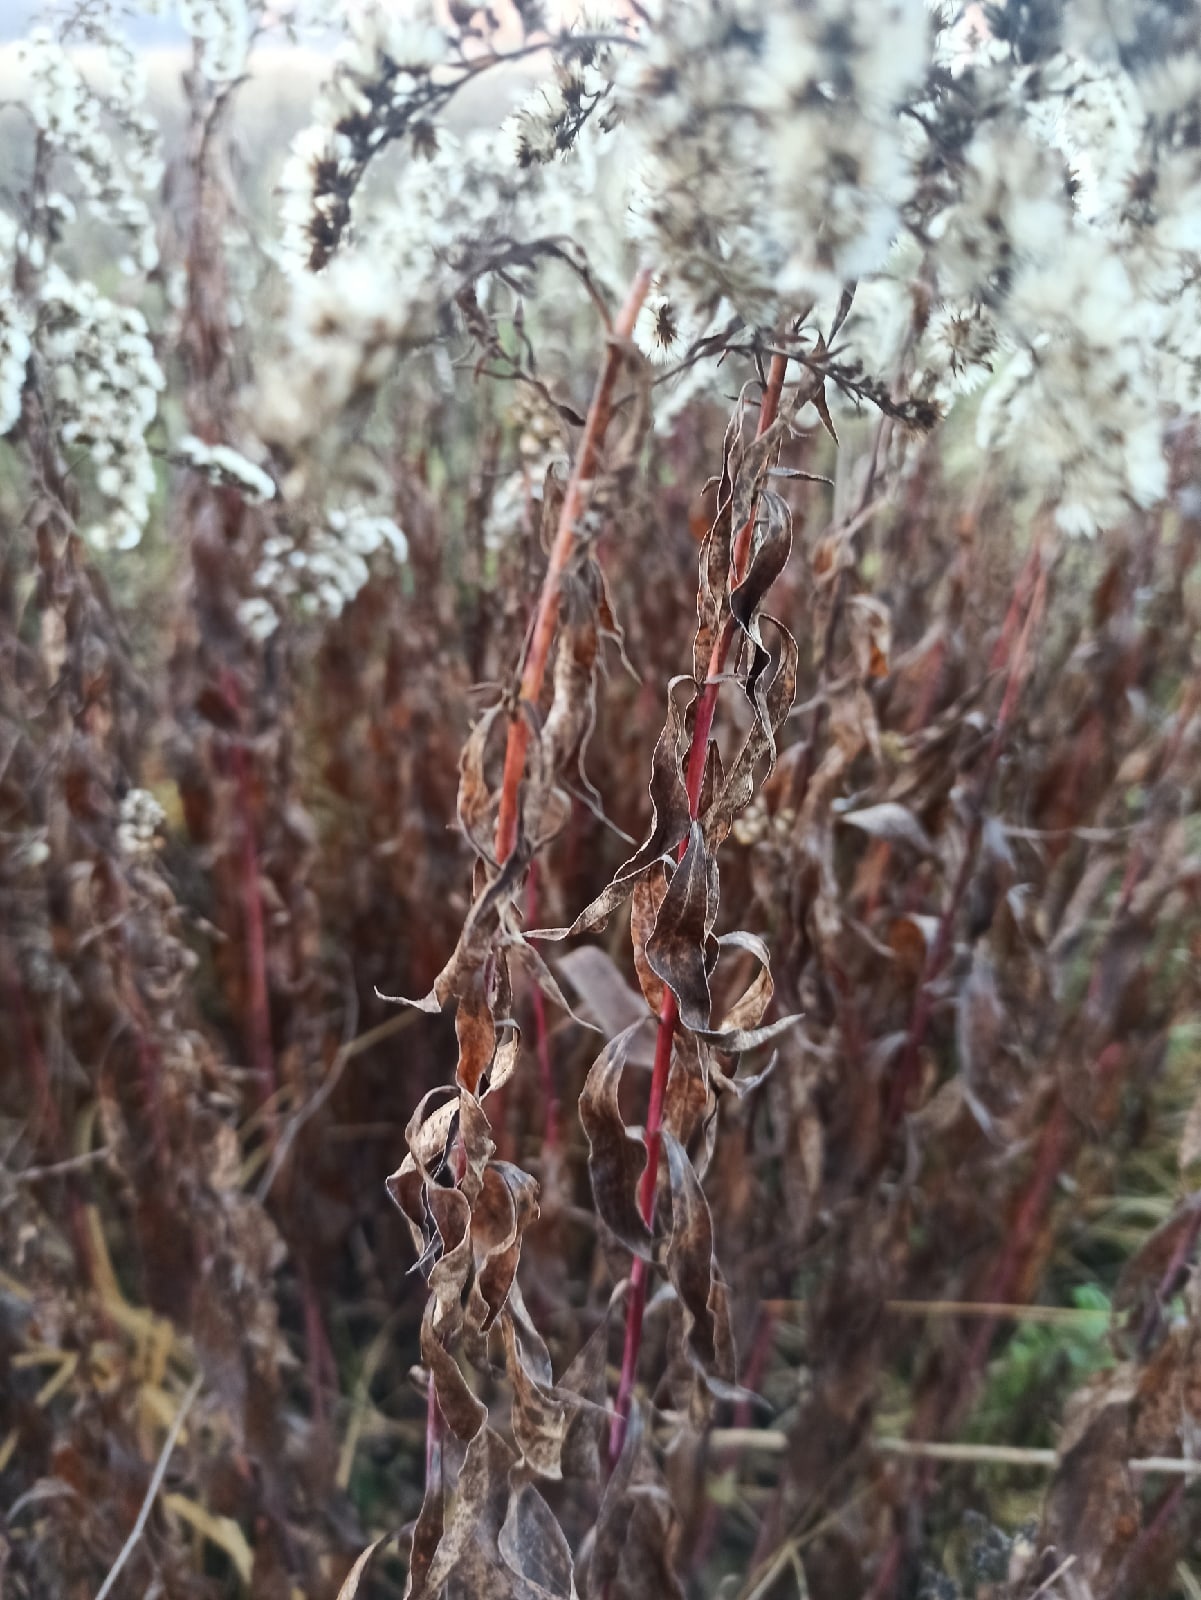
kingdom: Plantae
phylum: Tracheophyta
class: Magnoliopsida
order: Asterales
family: Asteraceae
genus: Solidago
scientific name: Solidago gigantea
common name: Giant goldenrod
